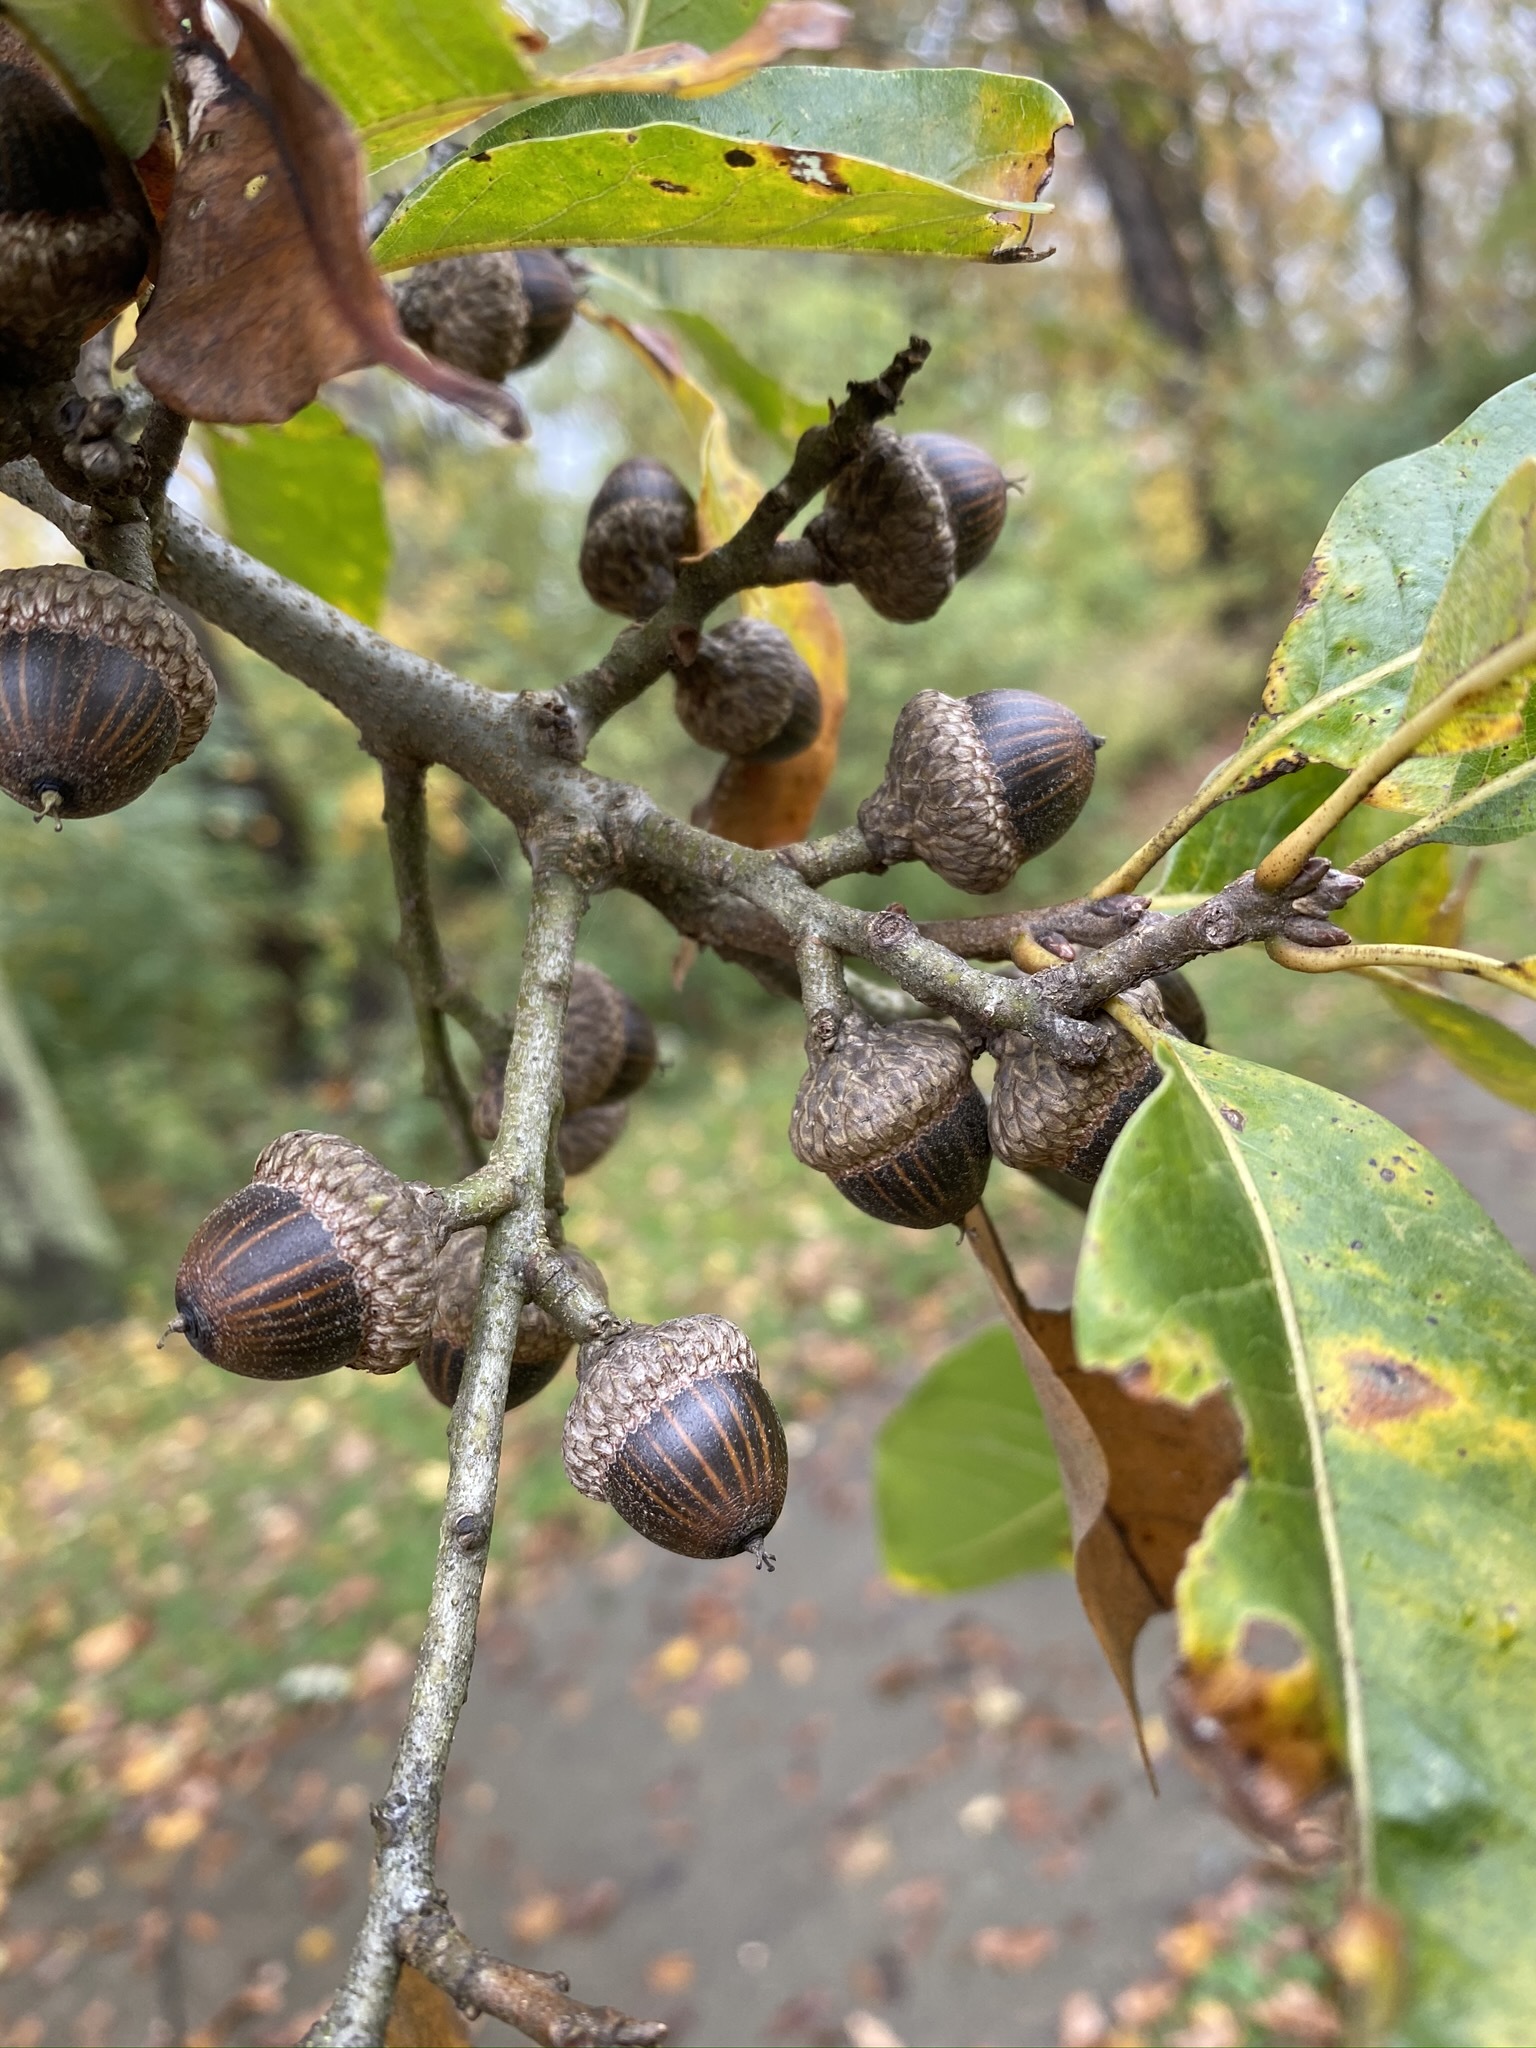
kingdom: Plantae
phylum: Tracheophyta
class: Magnoliopsida
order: Fagales
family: Fagaceae
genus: Quercus
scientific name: Quercus imbricaria
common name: Shingle oak
